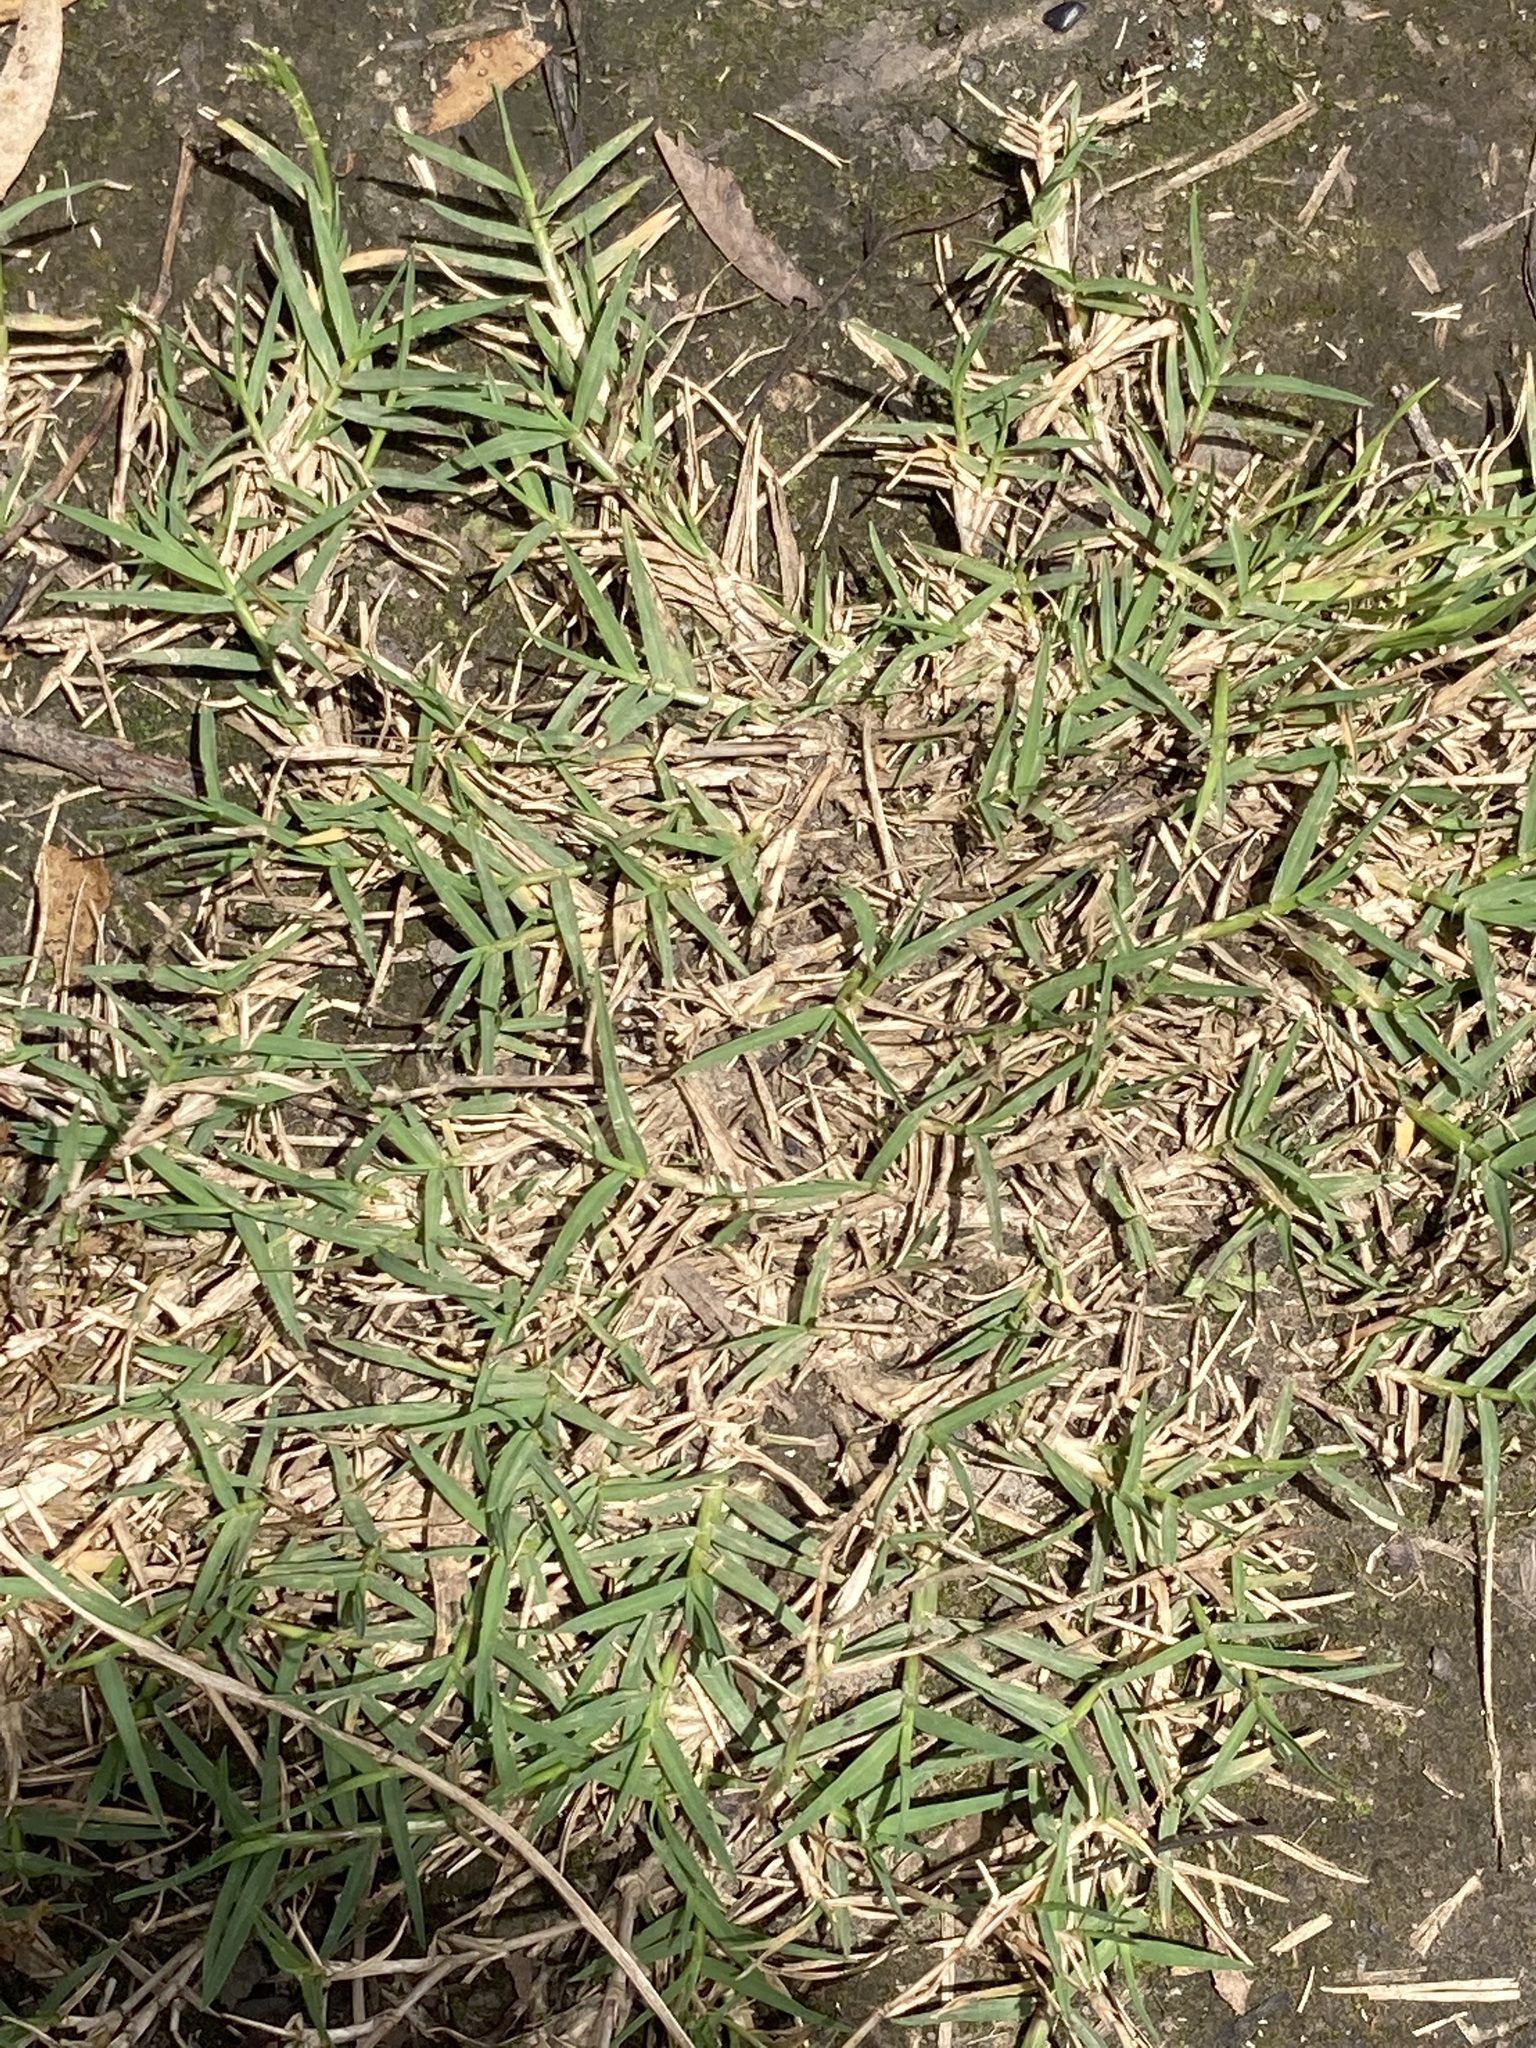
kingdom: Plantae
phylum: Tracheophyta
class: Liliopsida
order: Poales
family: Poaceae
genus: Cynodon
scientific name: Cynodon dactylon
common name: Bermuda grass
